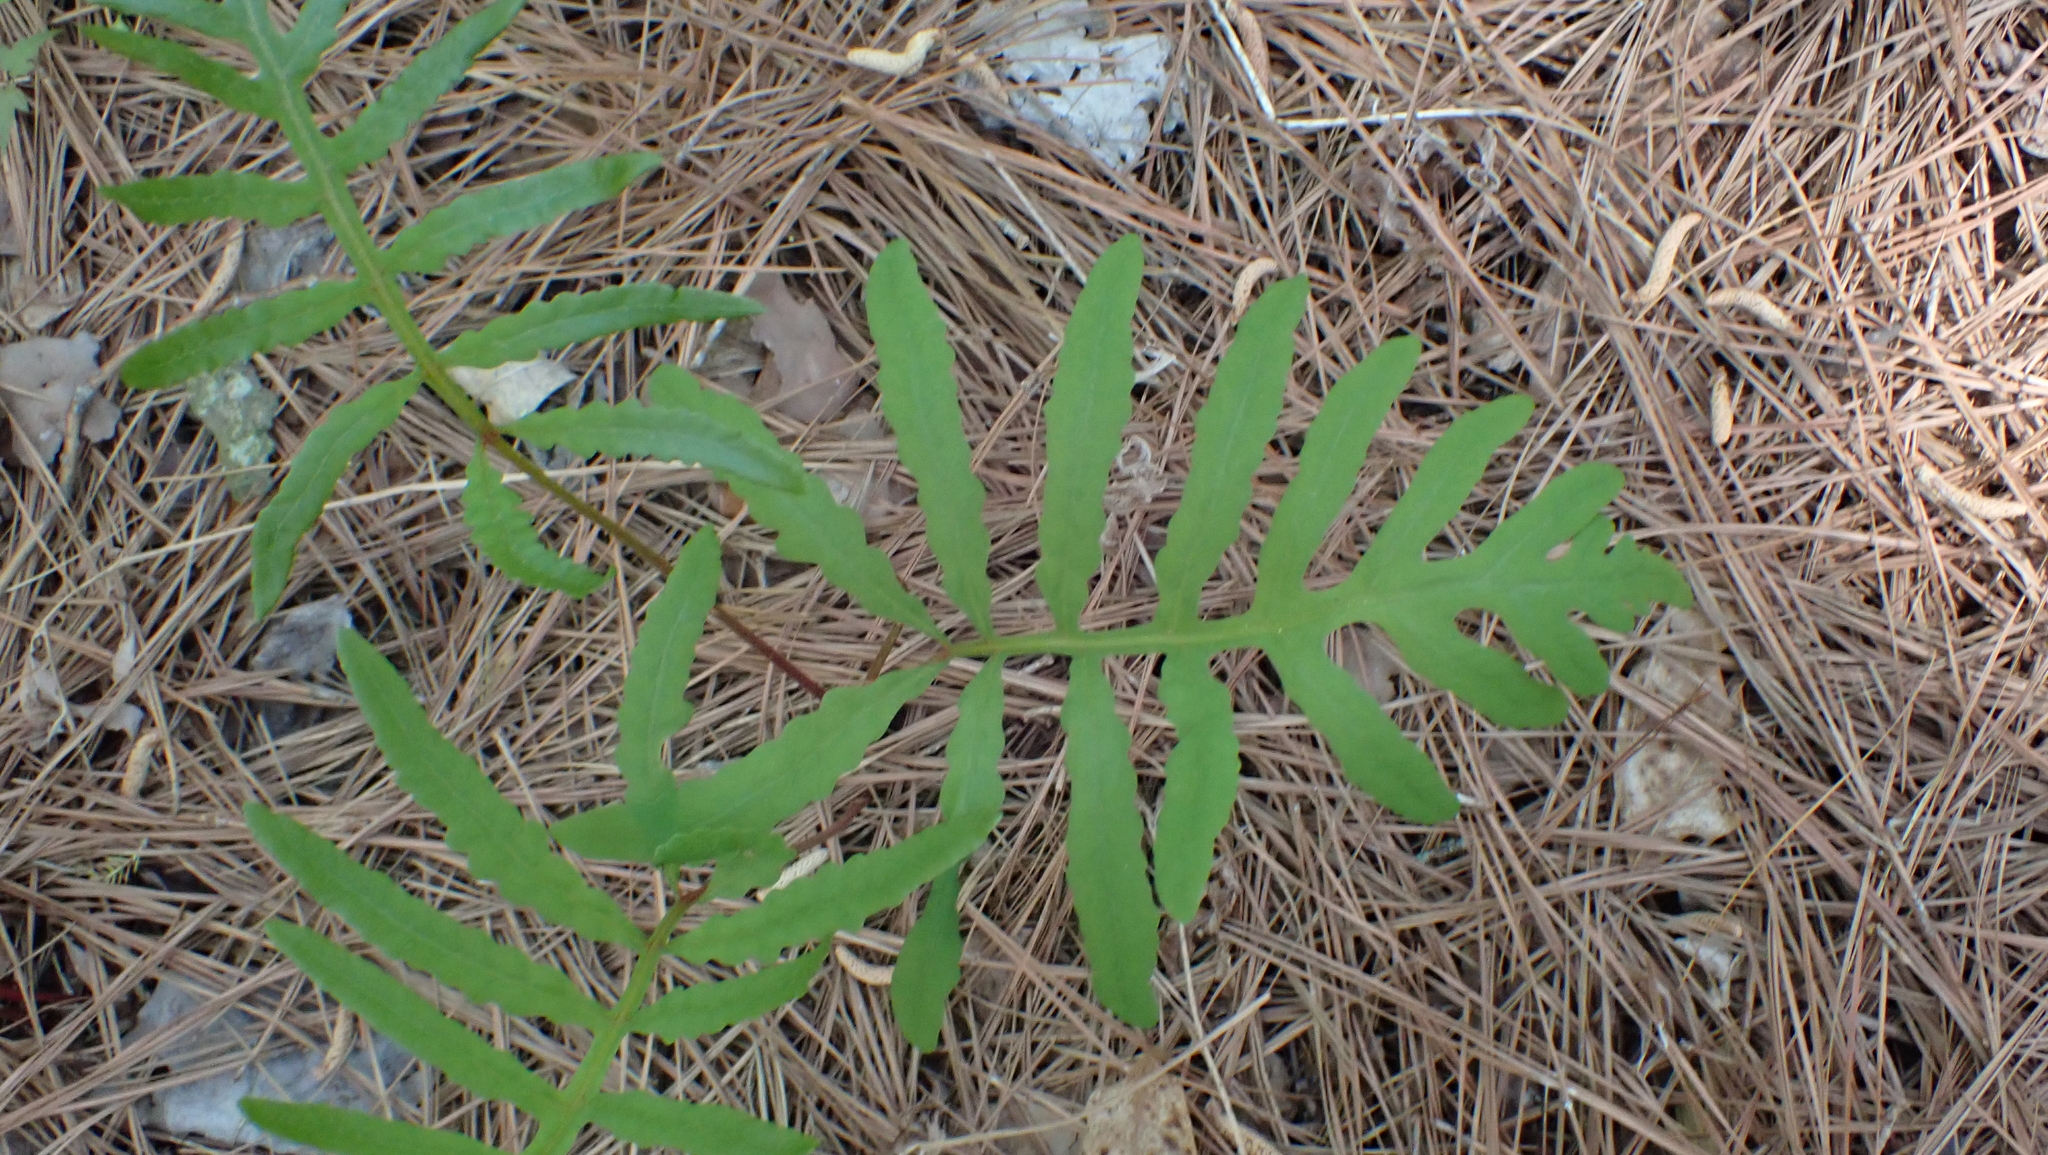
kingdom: Plantae
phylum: Tracheophyta
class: Polypodiopsida
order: Polypodiales
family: Onocleaceae
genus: Onoclea
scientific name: Onoclea sensibilis
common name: Sensitive fern
